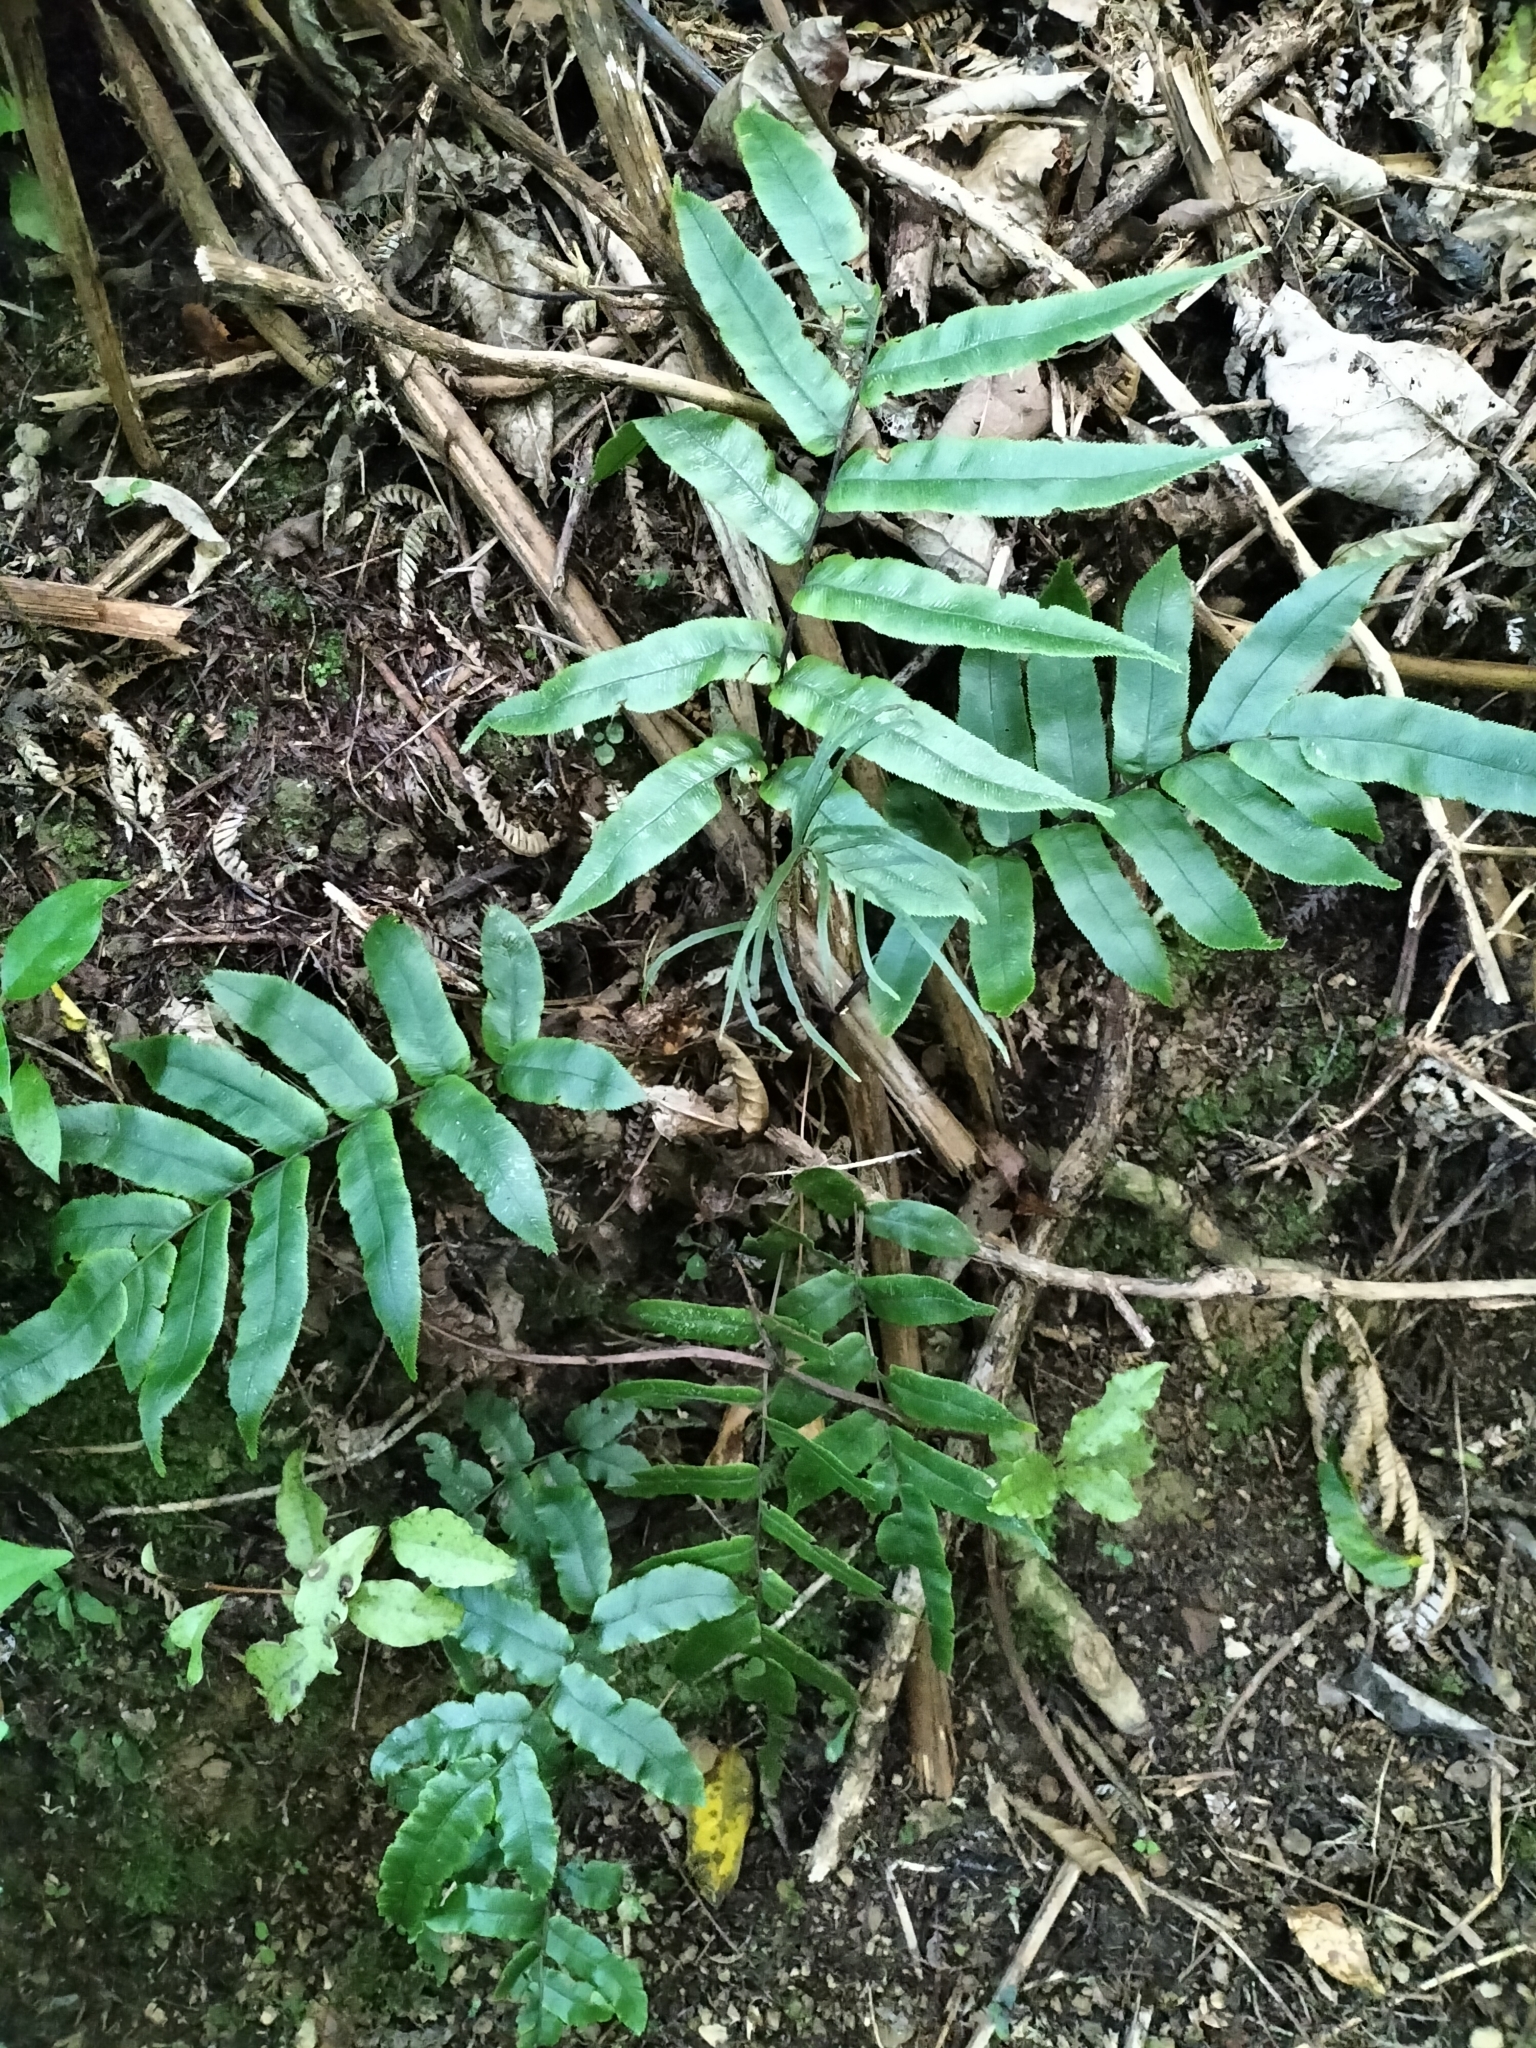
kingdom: Plantae
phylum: Tracheophyta
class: Polypodiopsida
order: Polypodiales
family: Blechnaceae
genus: Parablechnum
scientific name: Parablechnum procerum
